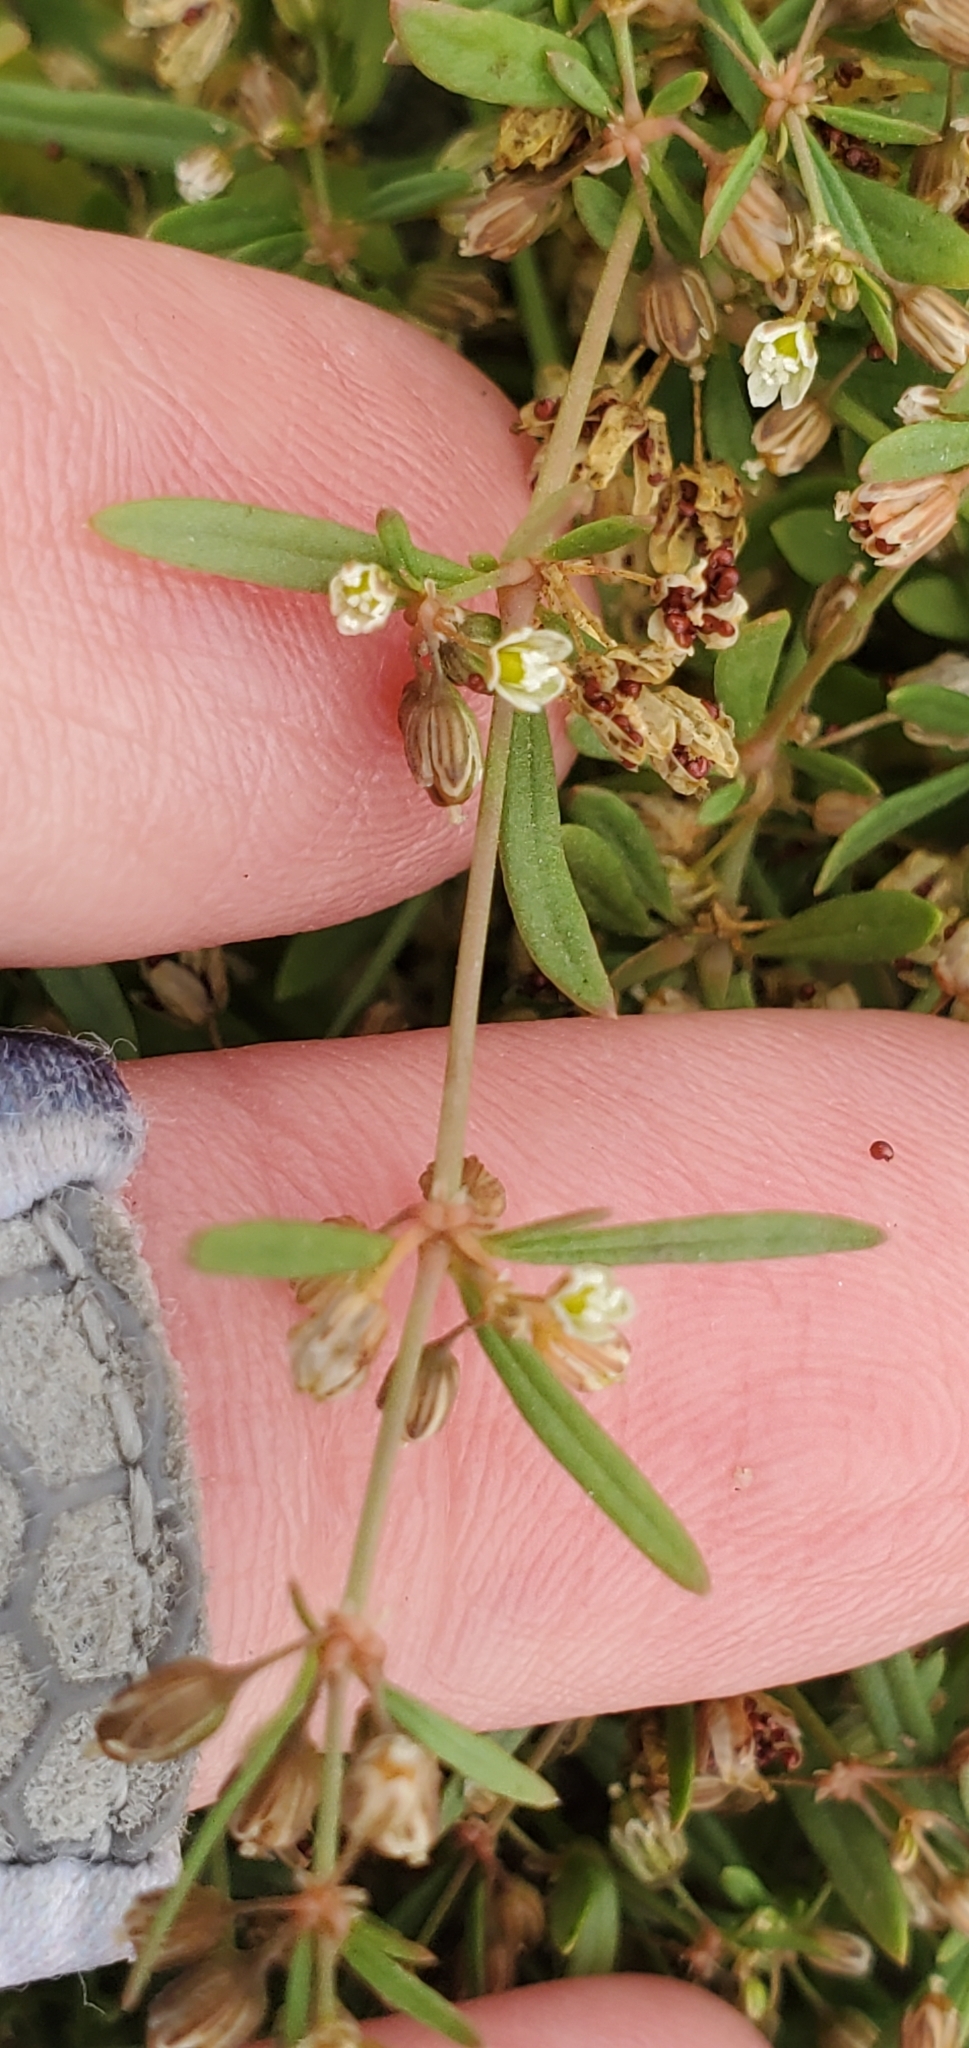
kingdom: Plantae
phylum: Tracheophyta
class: Magnoliopsida
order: Caryophyllales
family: Molluginaceae
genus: Mollugo
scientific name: Mollugo verticillata
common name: Green carpetweed
